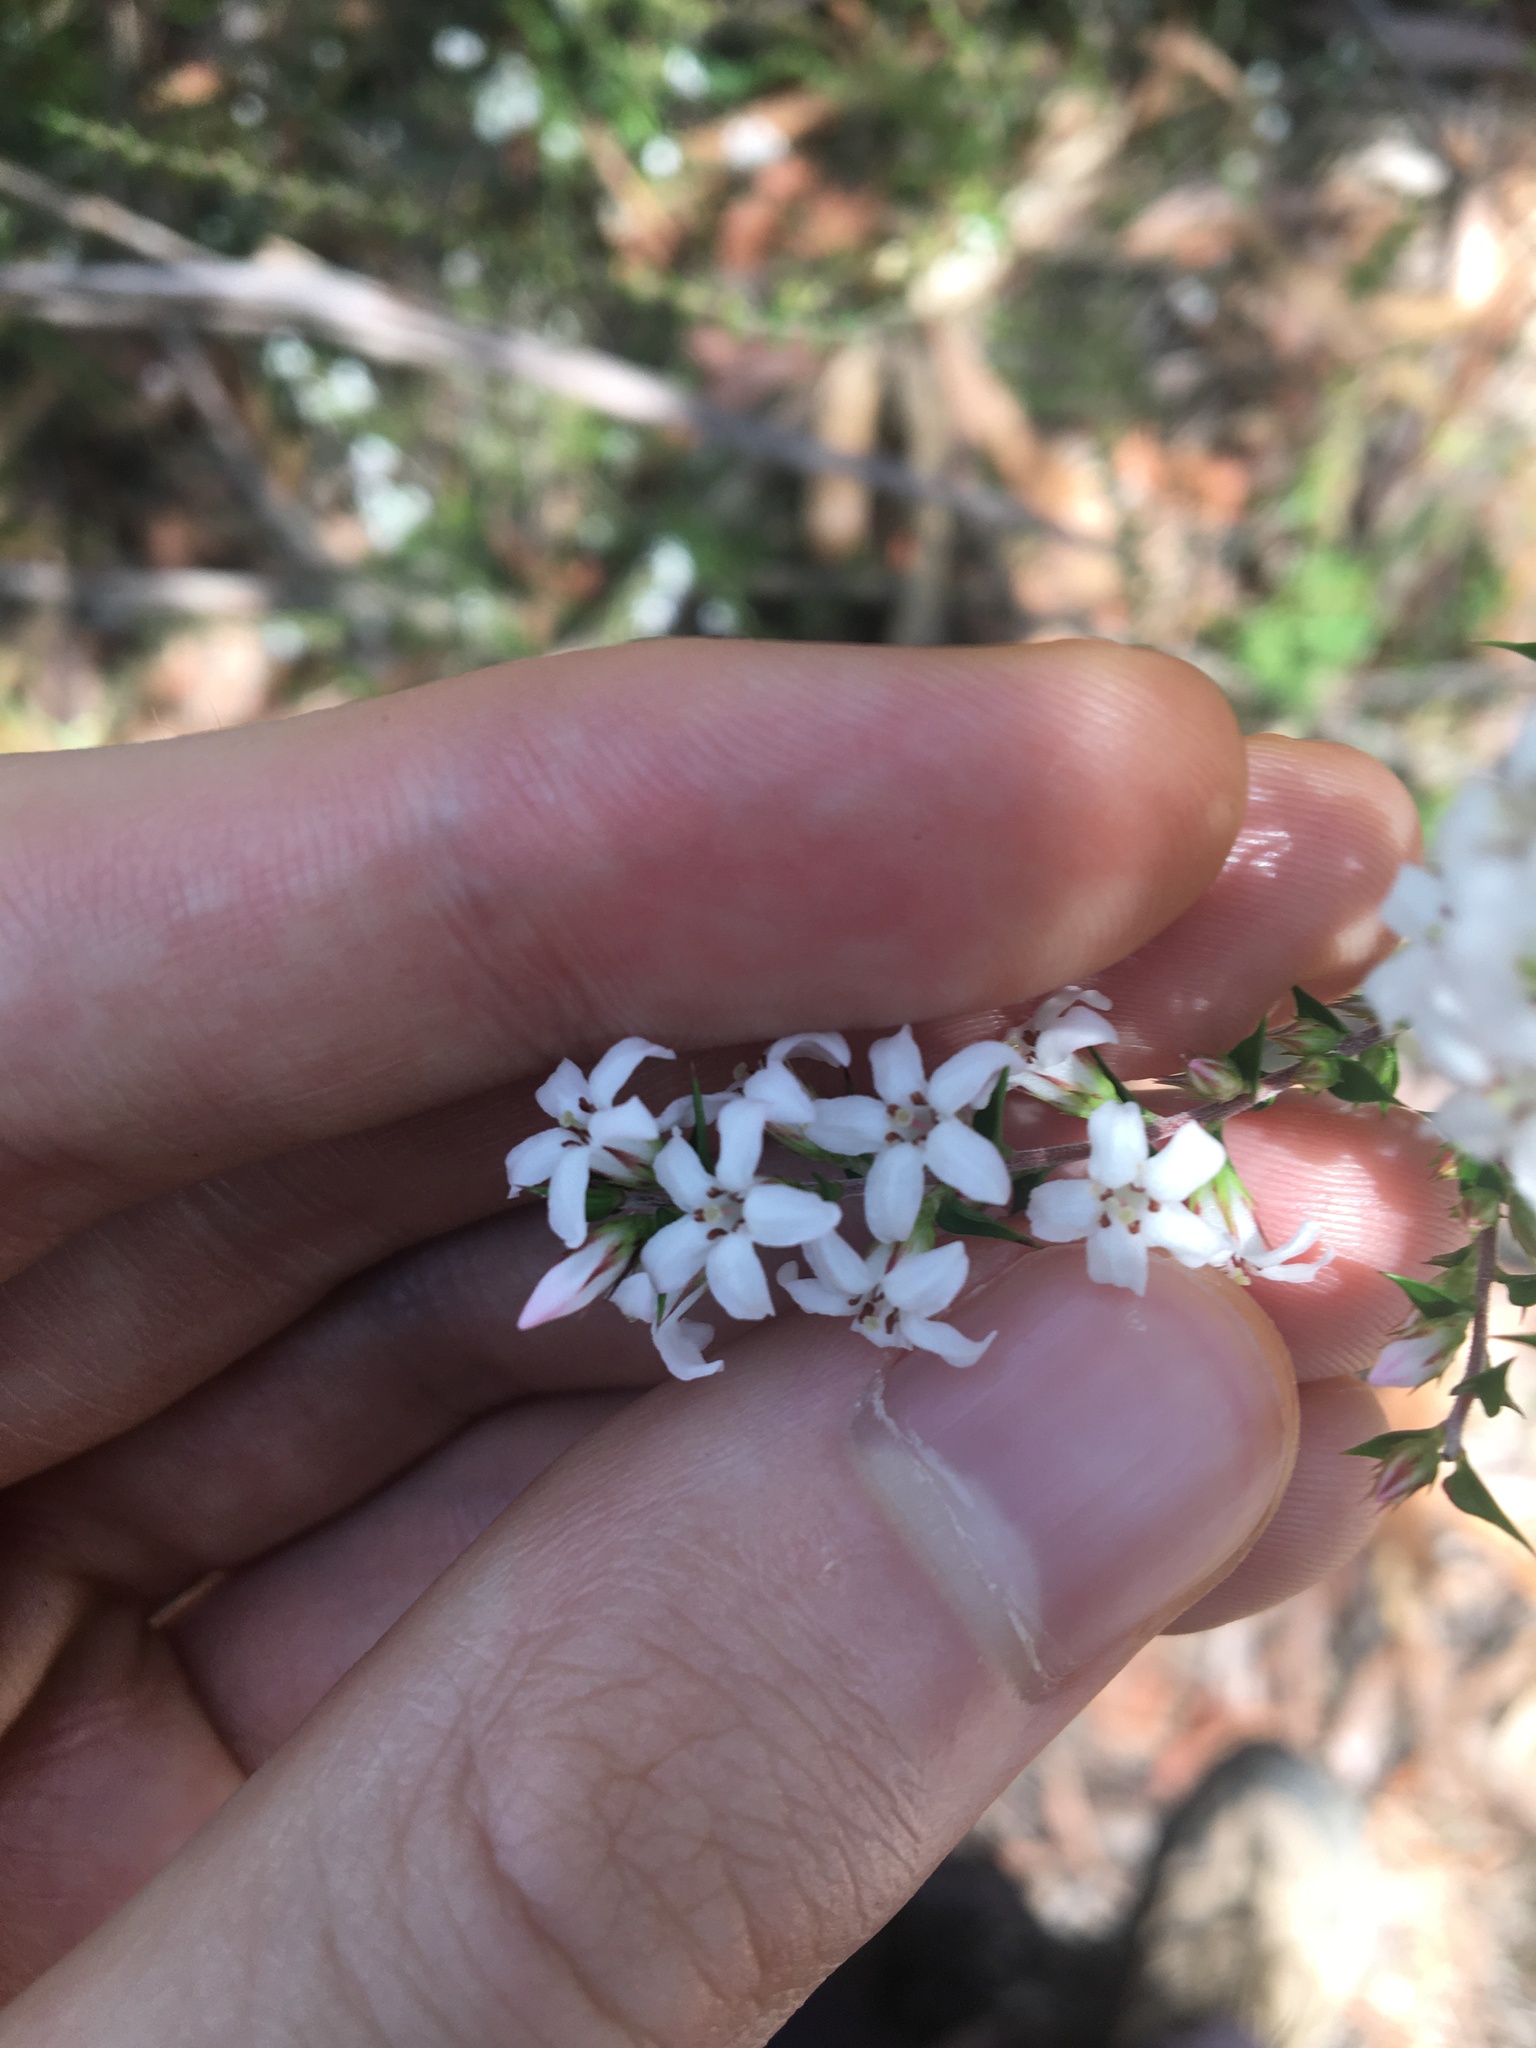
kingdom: Plantae
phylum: Tracheophyta
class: Magnoliopsida
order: Ericales
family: Ericaceae
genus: Epacris
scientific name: Epacris pulchella
